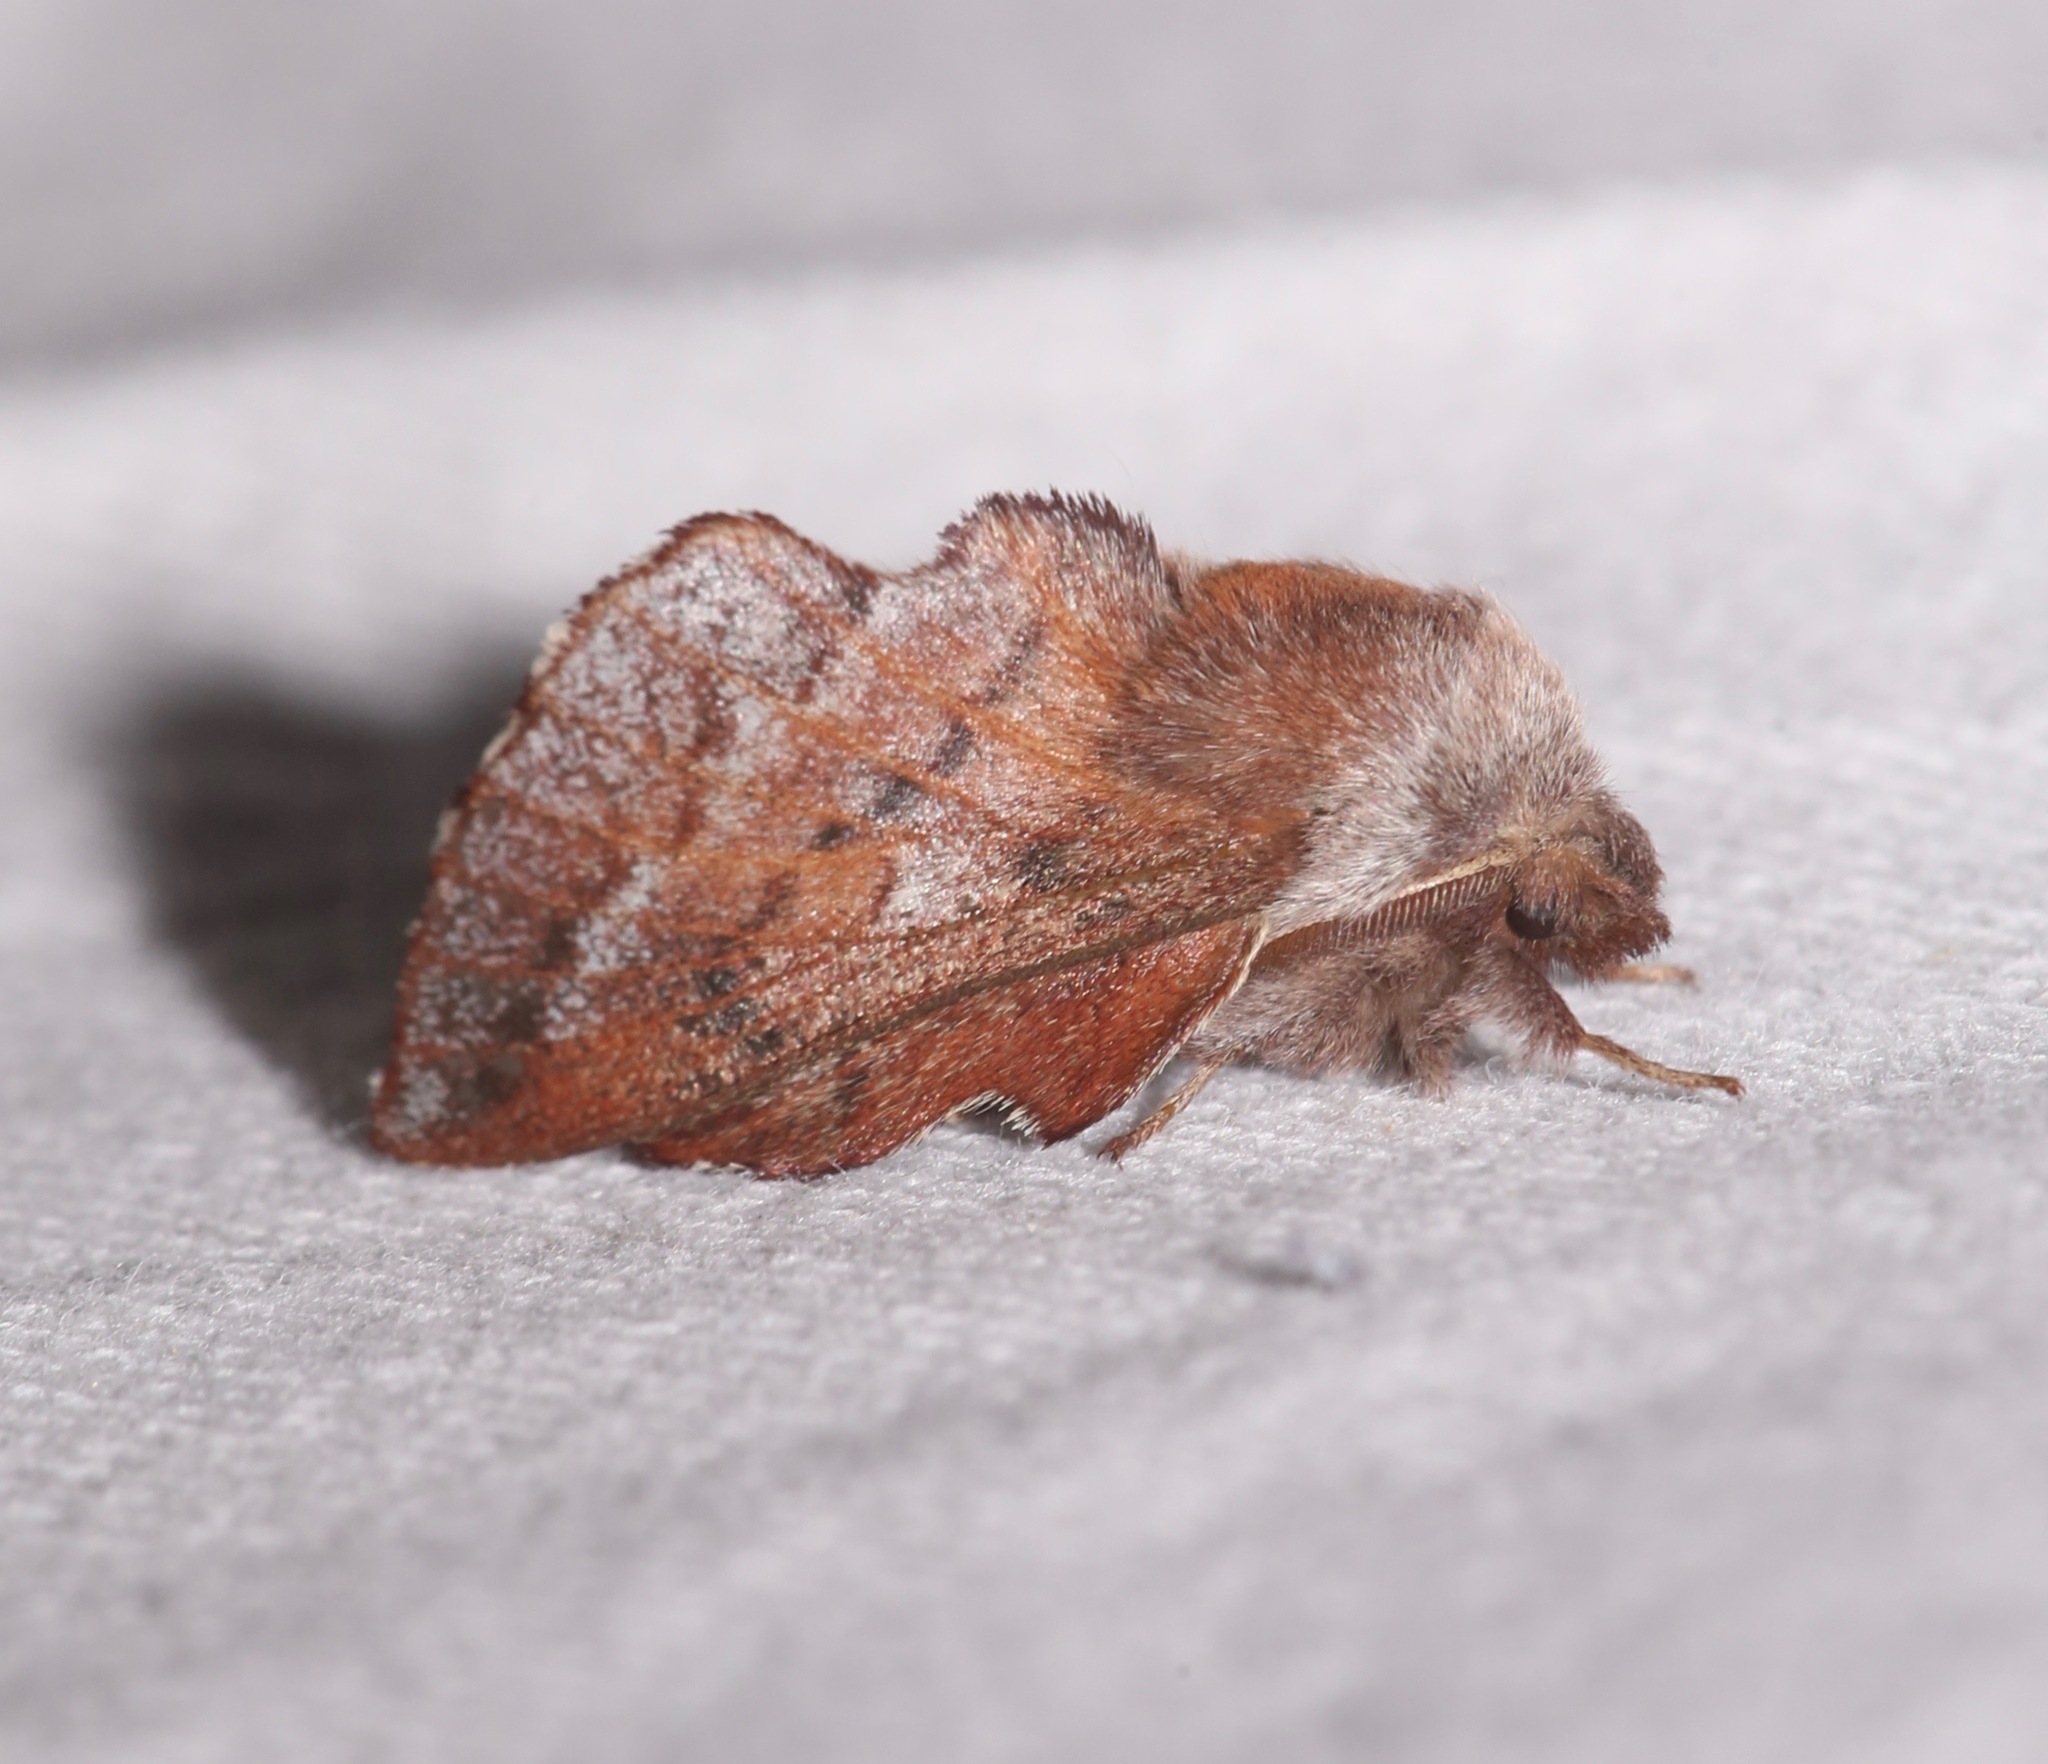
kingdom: Animalia
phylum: Arthropoda
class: Insecta
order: Lepidoptera
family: Lasiocampidae
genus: Phyllodesma
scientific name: Phyllodesma americana
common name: American lappet moth
